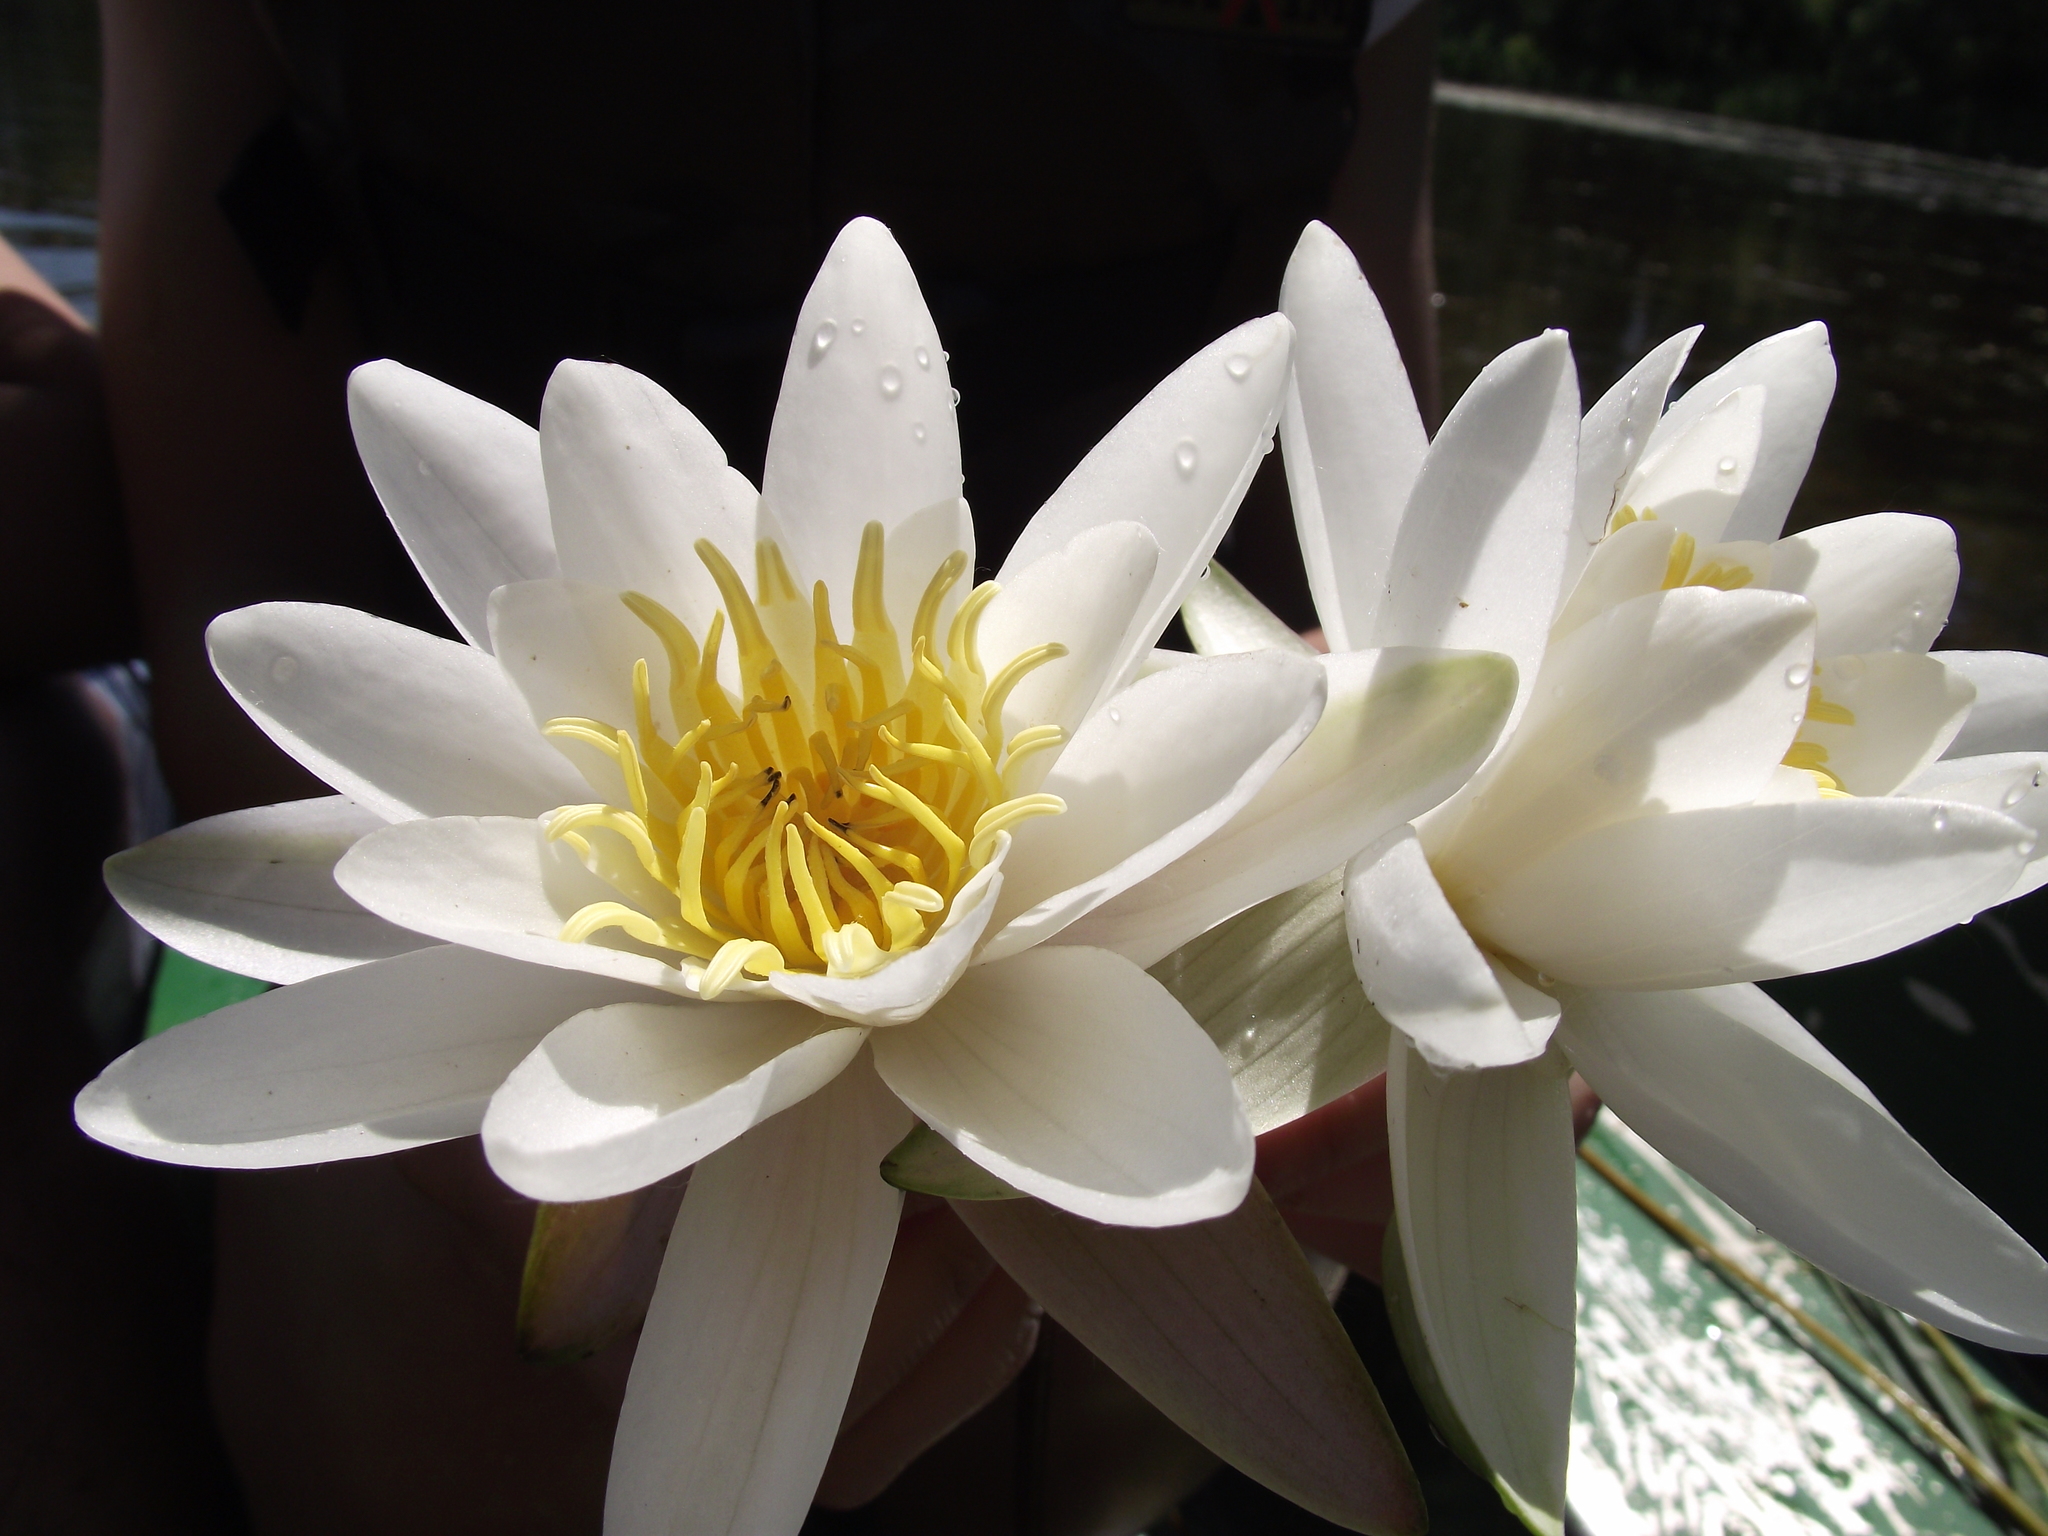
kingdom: Plantae
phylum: Tracheophyta
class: Magnoliopsida
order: Nymphaeales
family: Nymphaeaceae
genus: Nymphaea
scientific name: Nymphaea alba
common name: White water-lily
